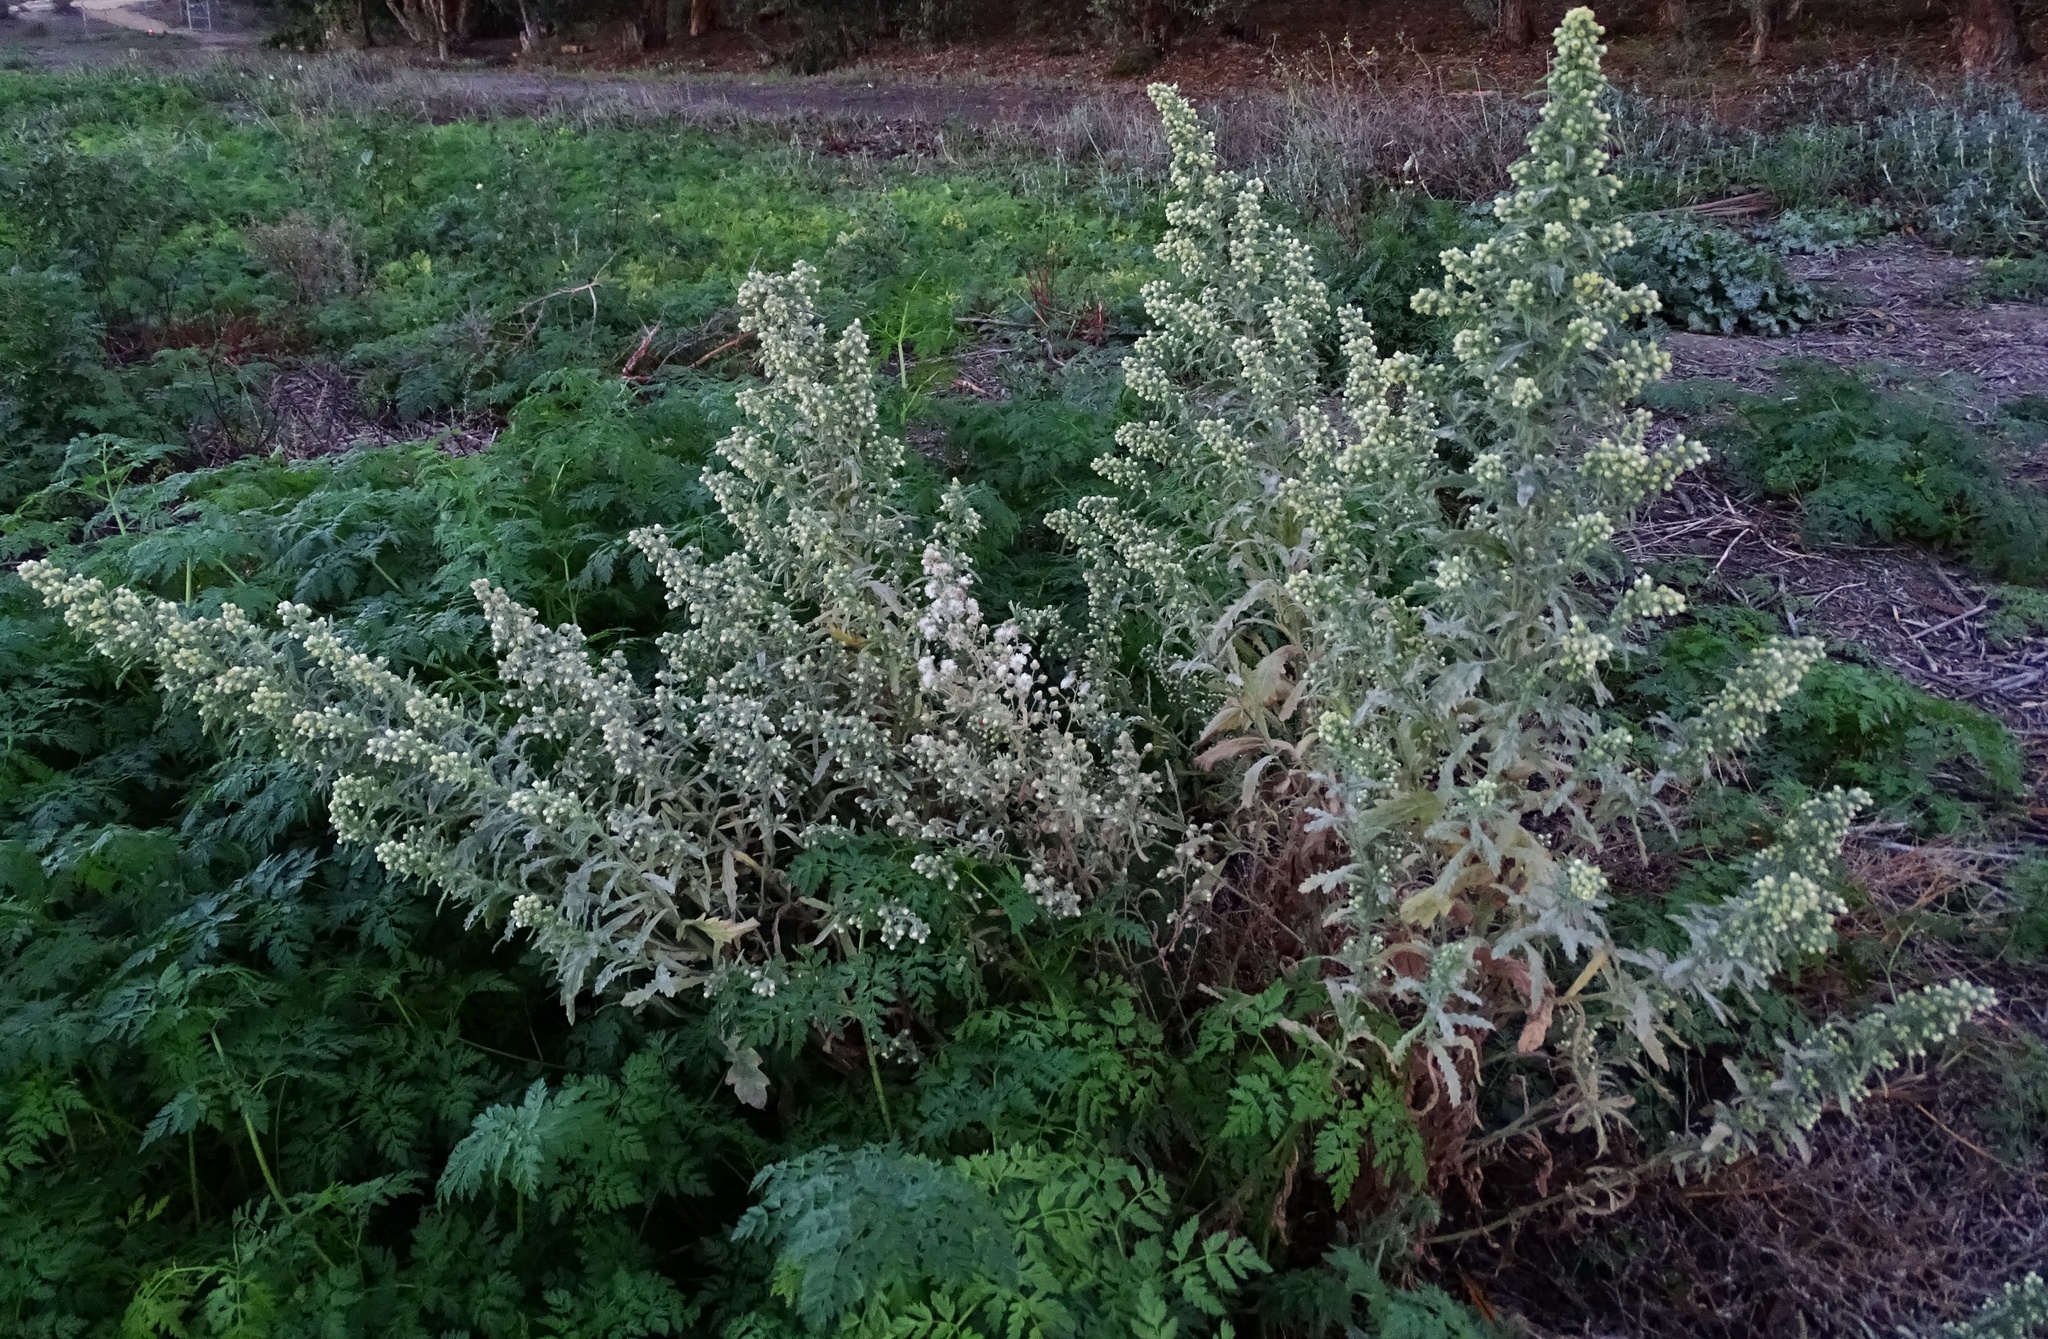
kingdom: Plantae
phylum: Tracheophyta
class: Magnoliopsida
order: Asterales
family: Asteraceae
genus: Laennecia
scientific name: Laennecia coulteri
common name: Coulter's woolwort
